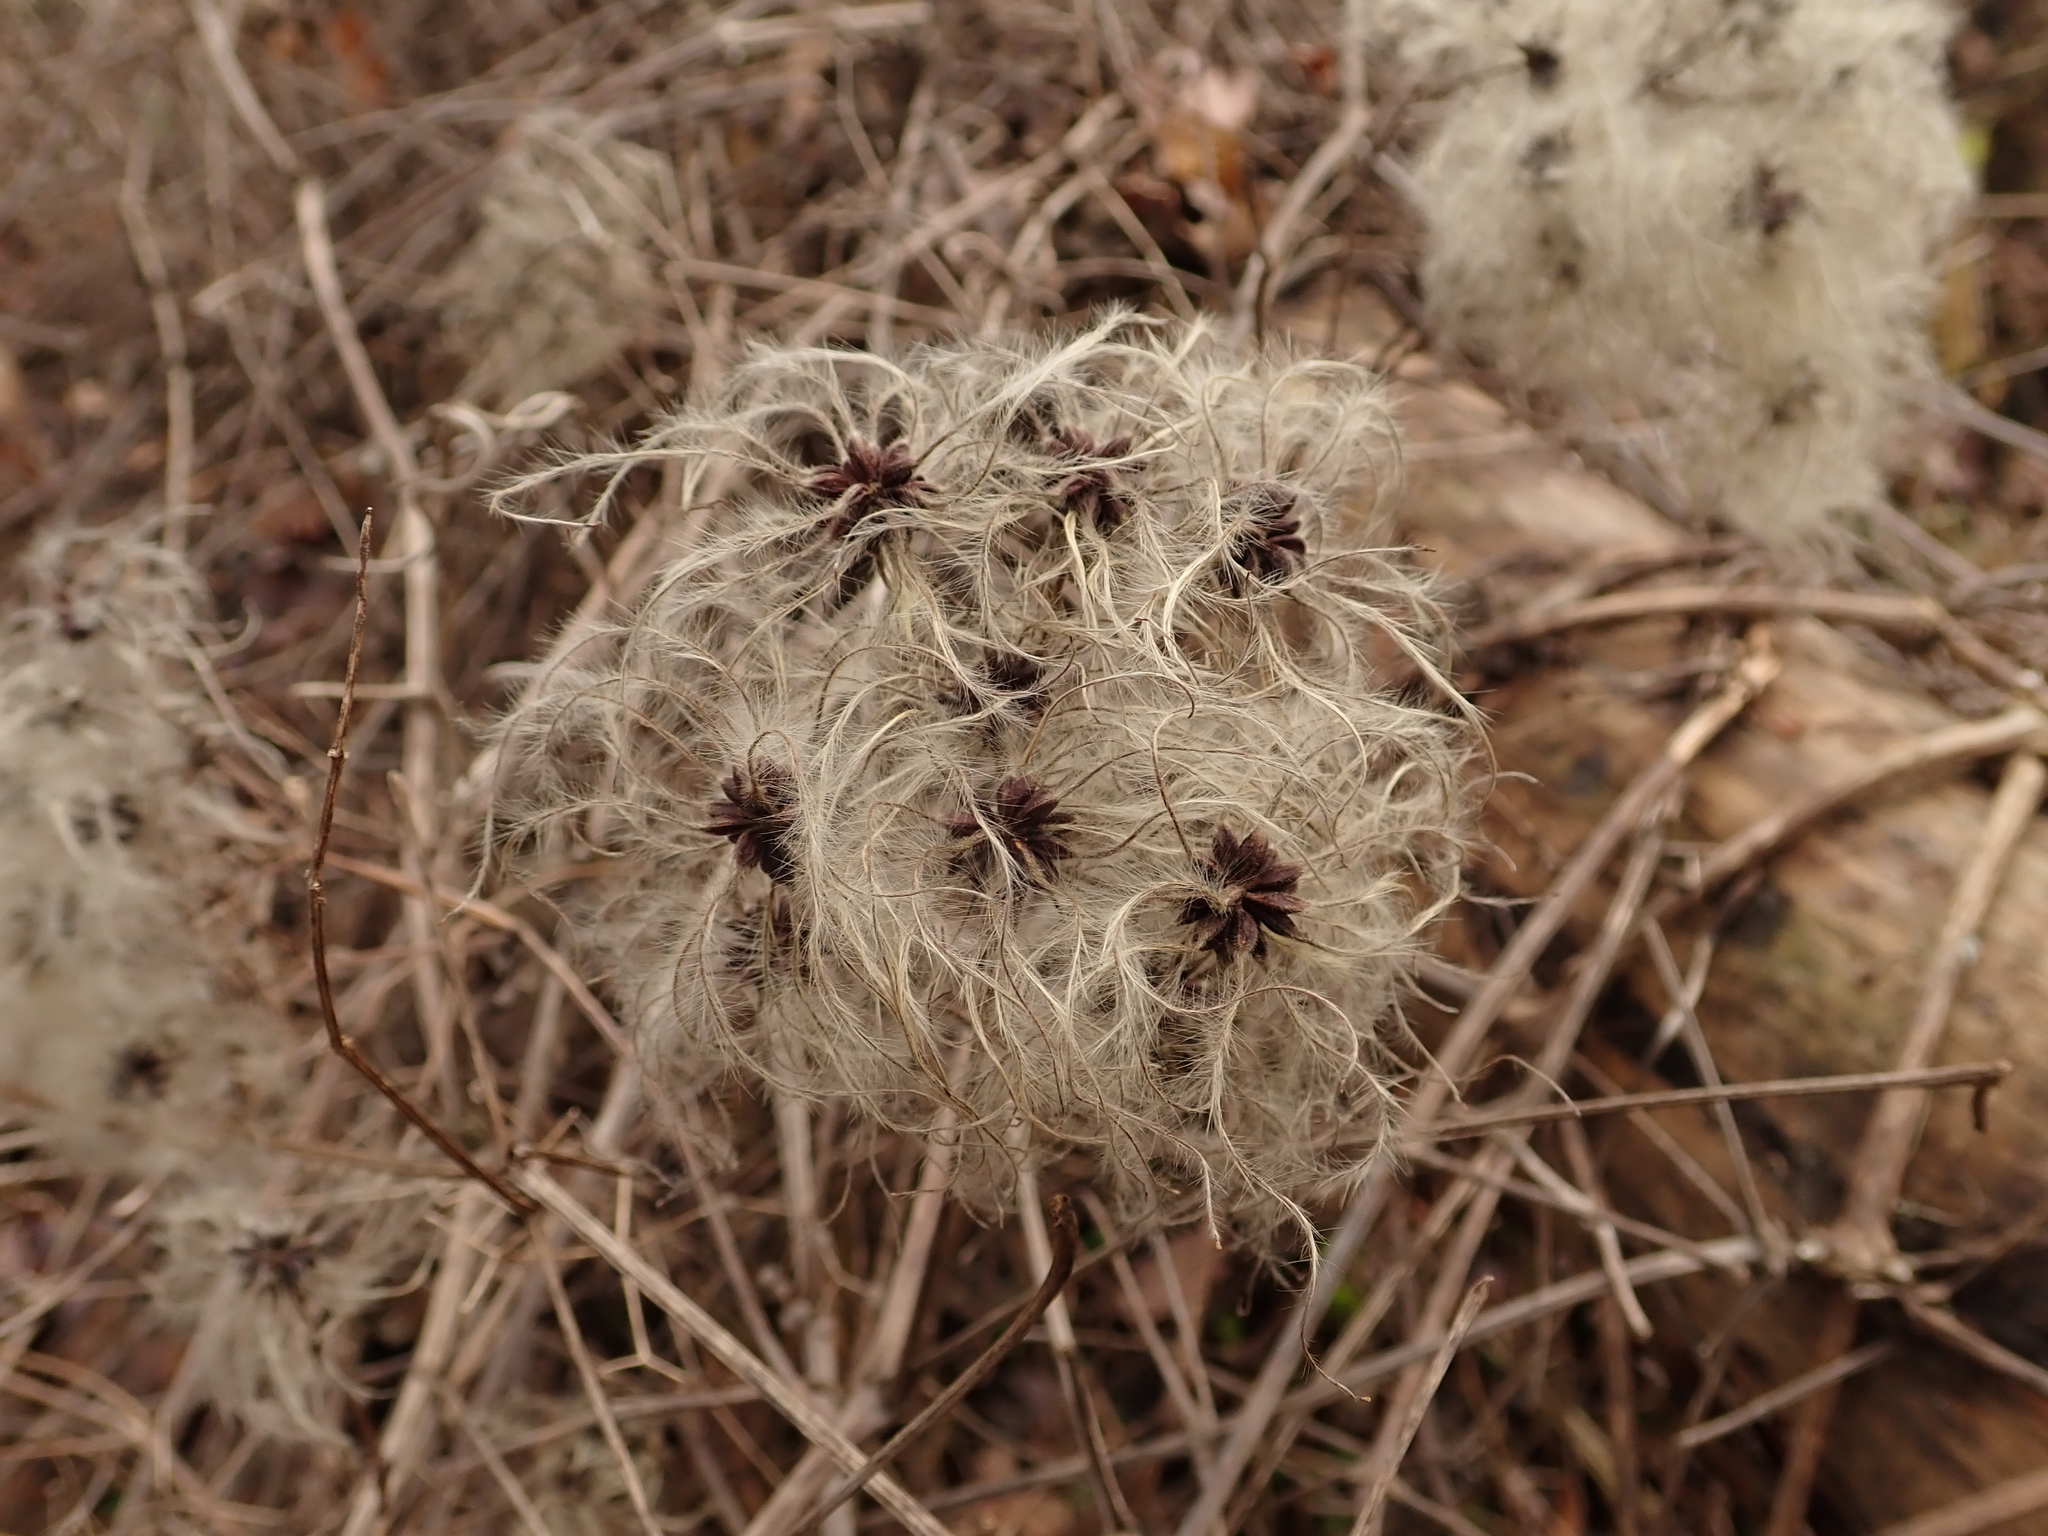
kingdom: Plantae
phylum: Tracheophyta
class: Magnoliopsida
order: Ranunculales
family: Ranunculaceae
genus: Clematis
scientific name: Clematis vitalba
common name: Evergreen clematis
